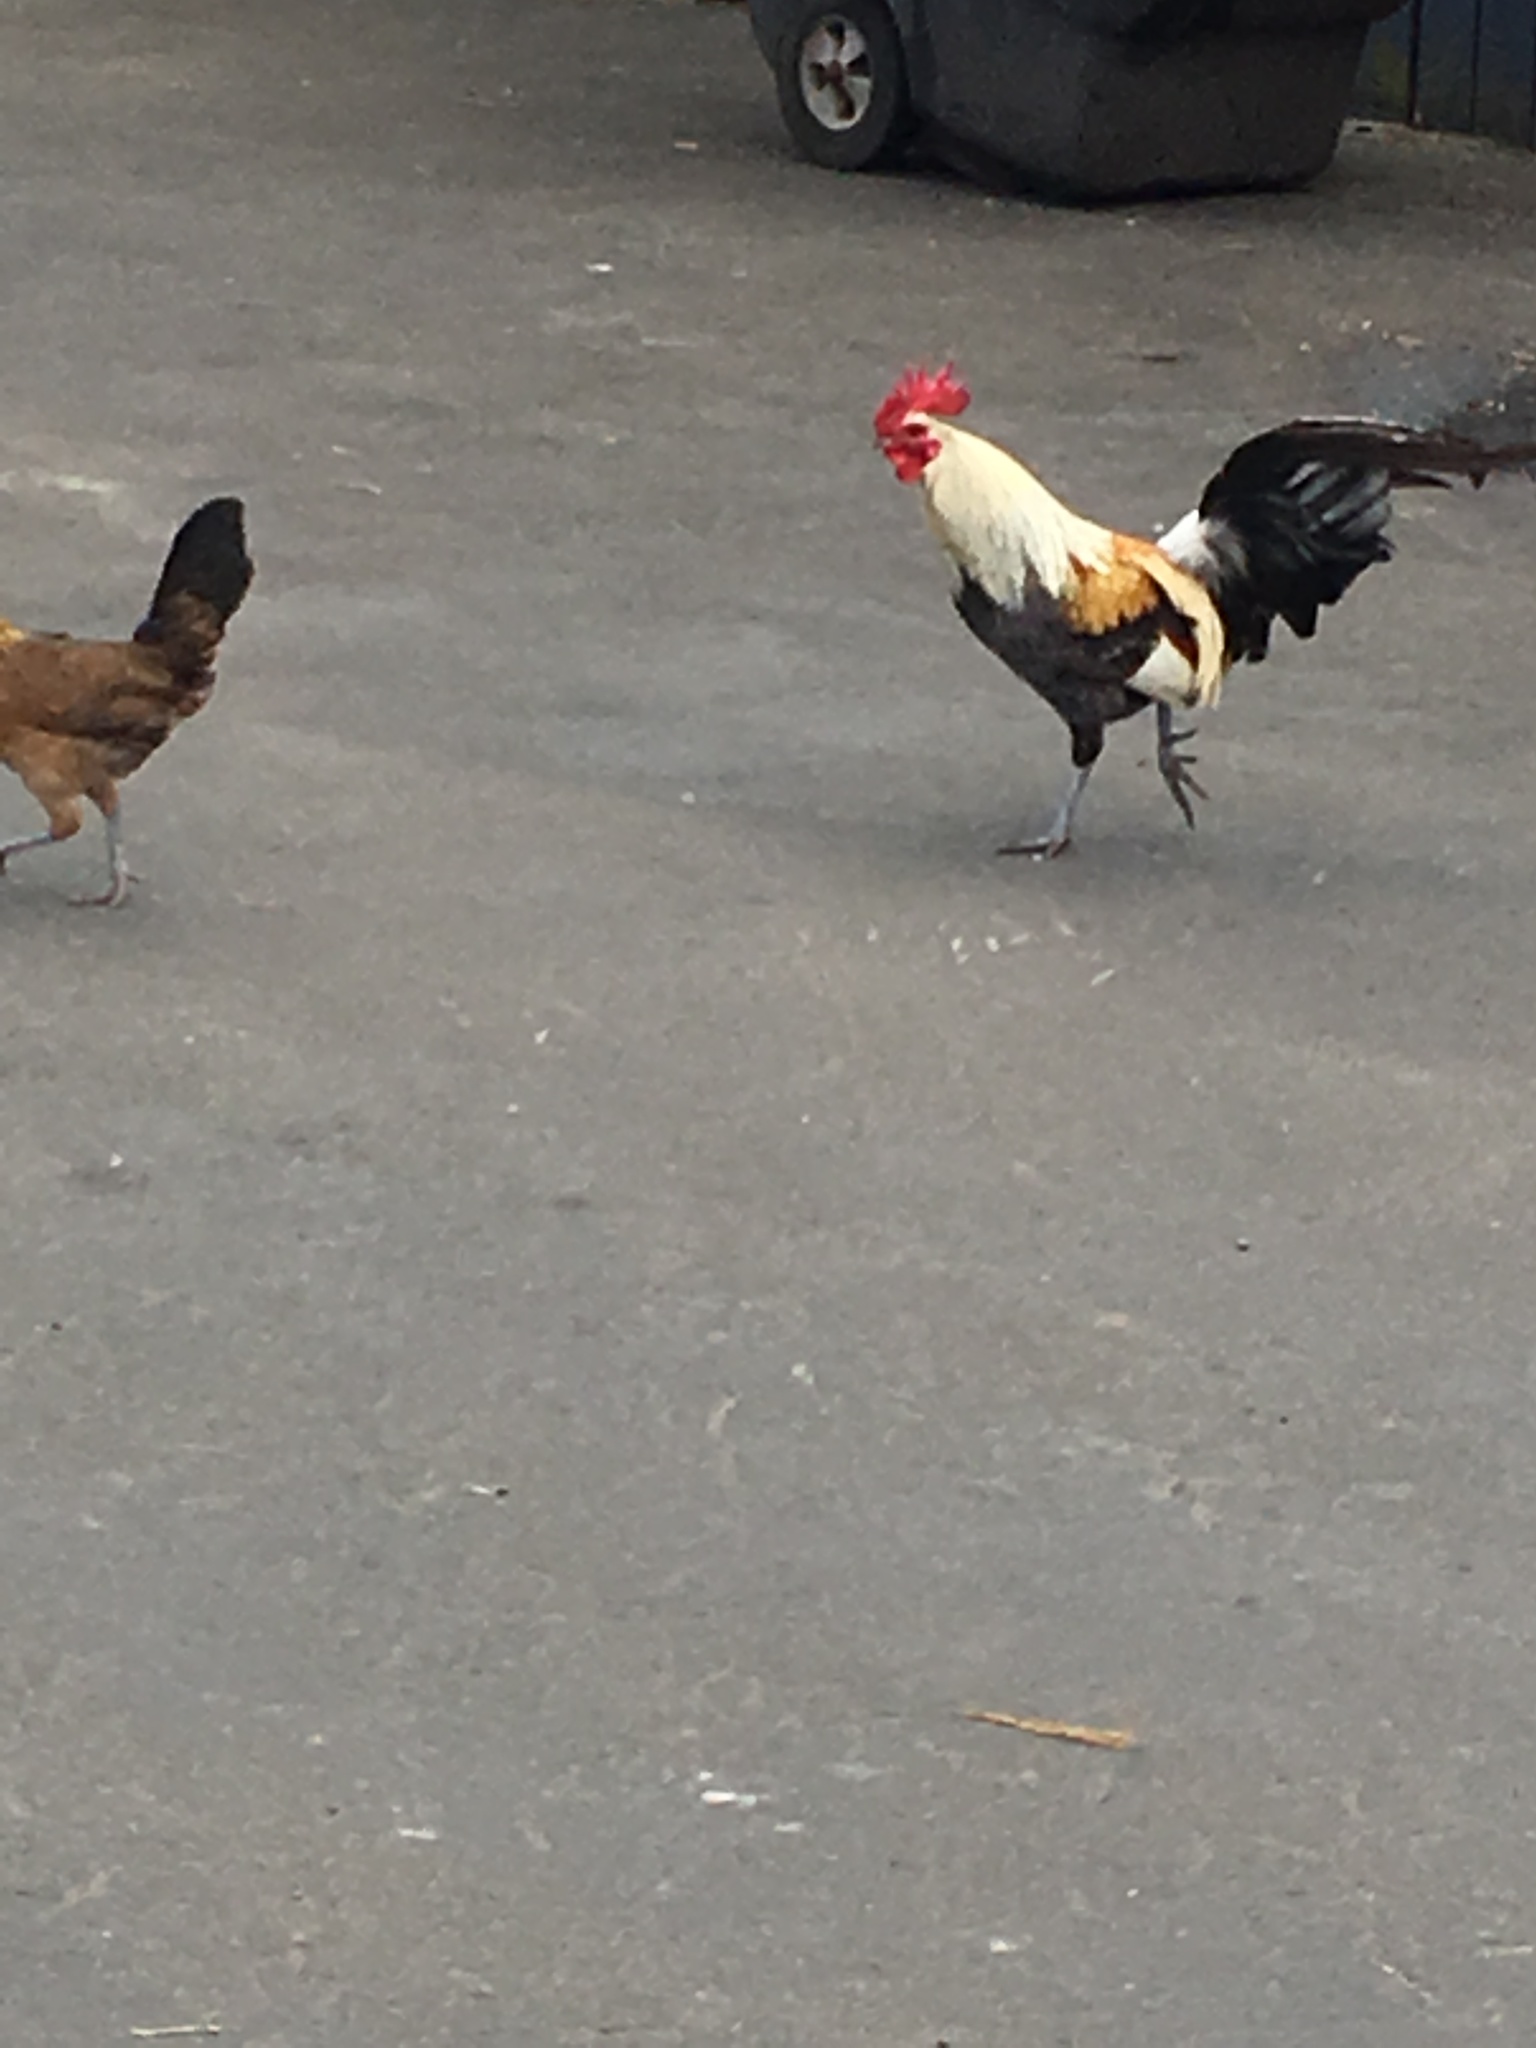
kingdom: Animalia
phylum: Chordata
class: Aves
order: Galliformes
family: Phasianidae
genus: Gallus
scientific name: Gallus gallus
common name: Red junglefowl
